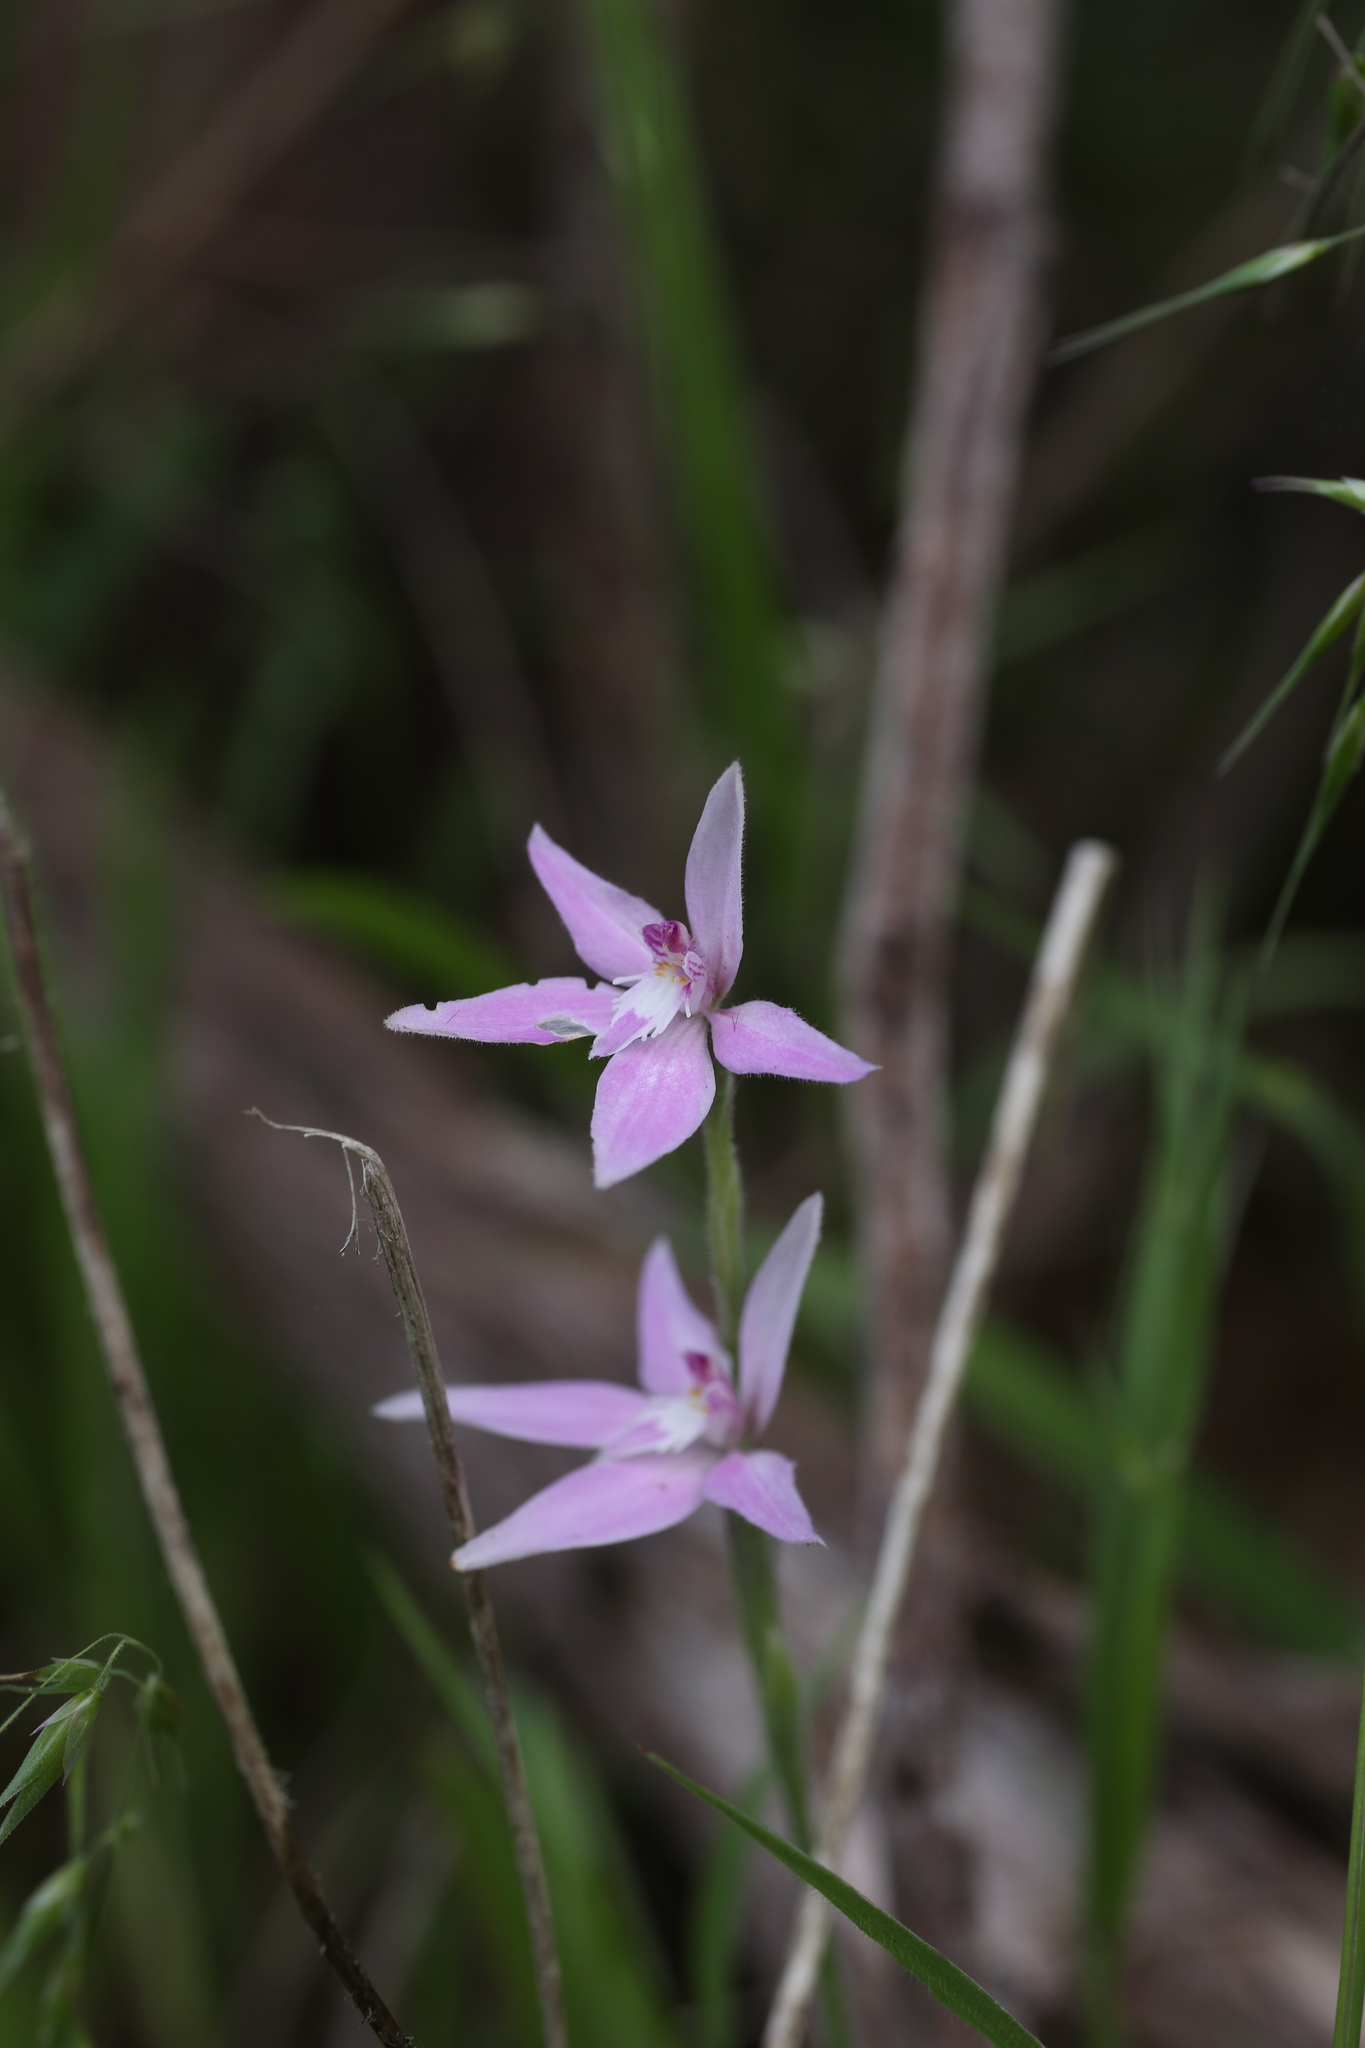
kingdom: Plantae
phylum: Tracheophyta
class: Liliopsida
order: Asparagales
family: Orchidaceae
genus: Caladenia
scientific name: Caladenia latifolia
